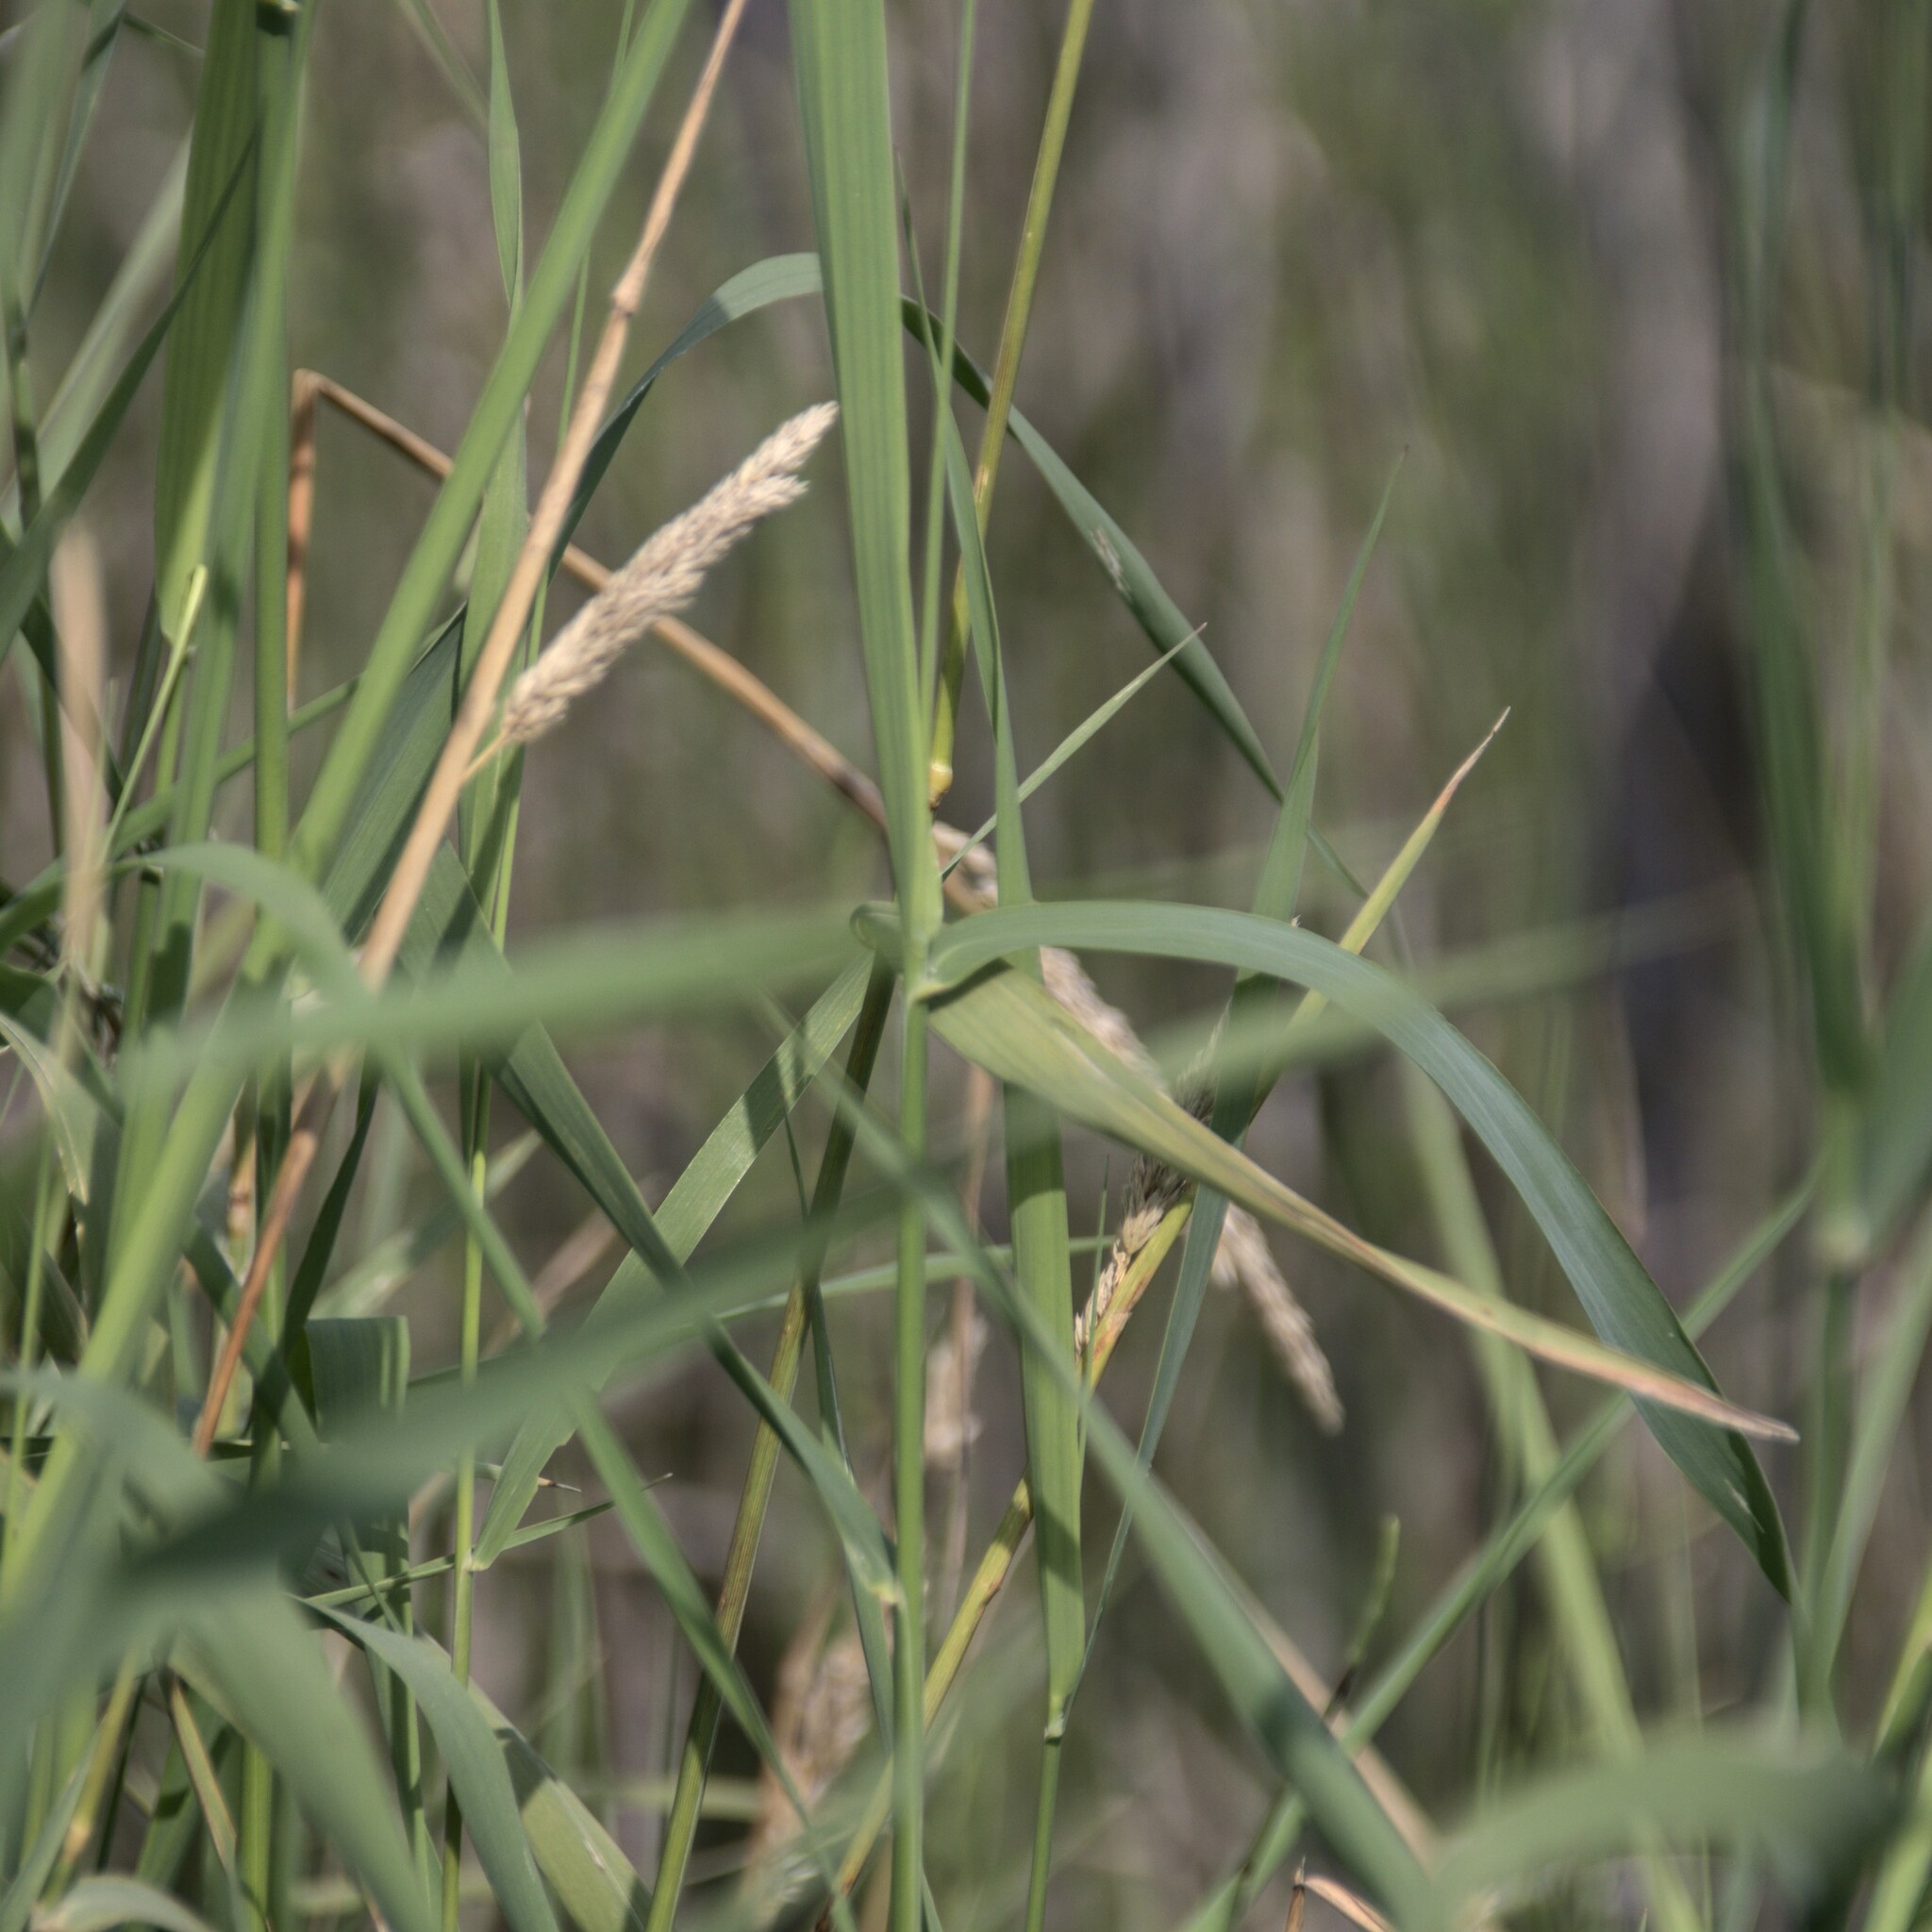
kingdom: Plantae
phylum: Tracheophyta
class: Liliopsida
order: Poales
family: Poaceae
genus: Phalaris
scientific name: Phalaris arundinacea
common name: Reed canary-grass
